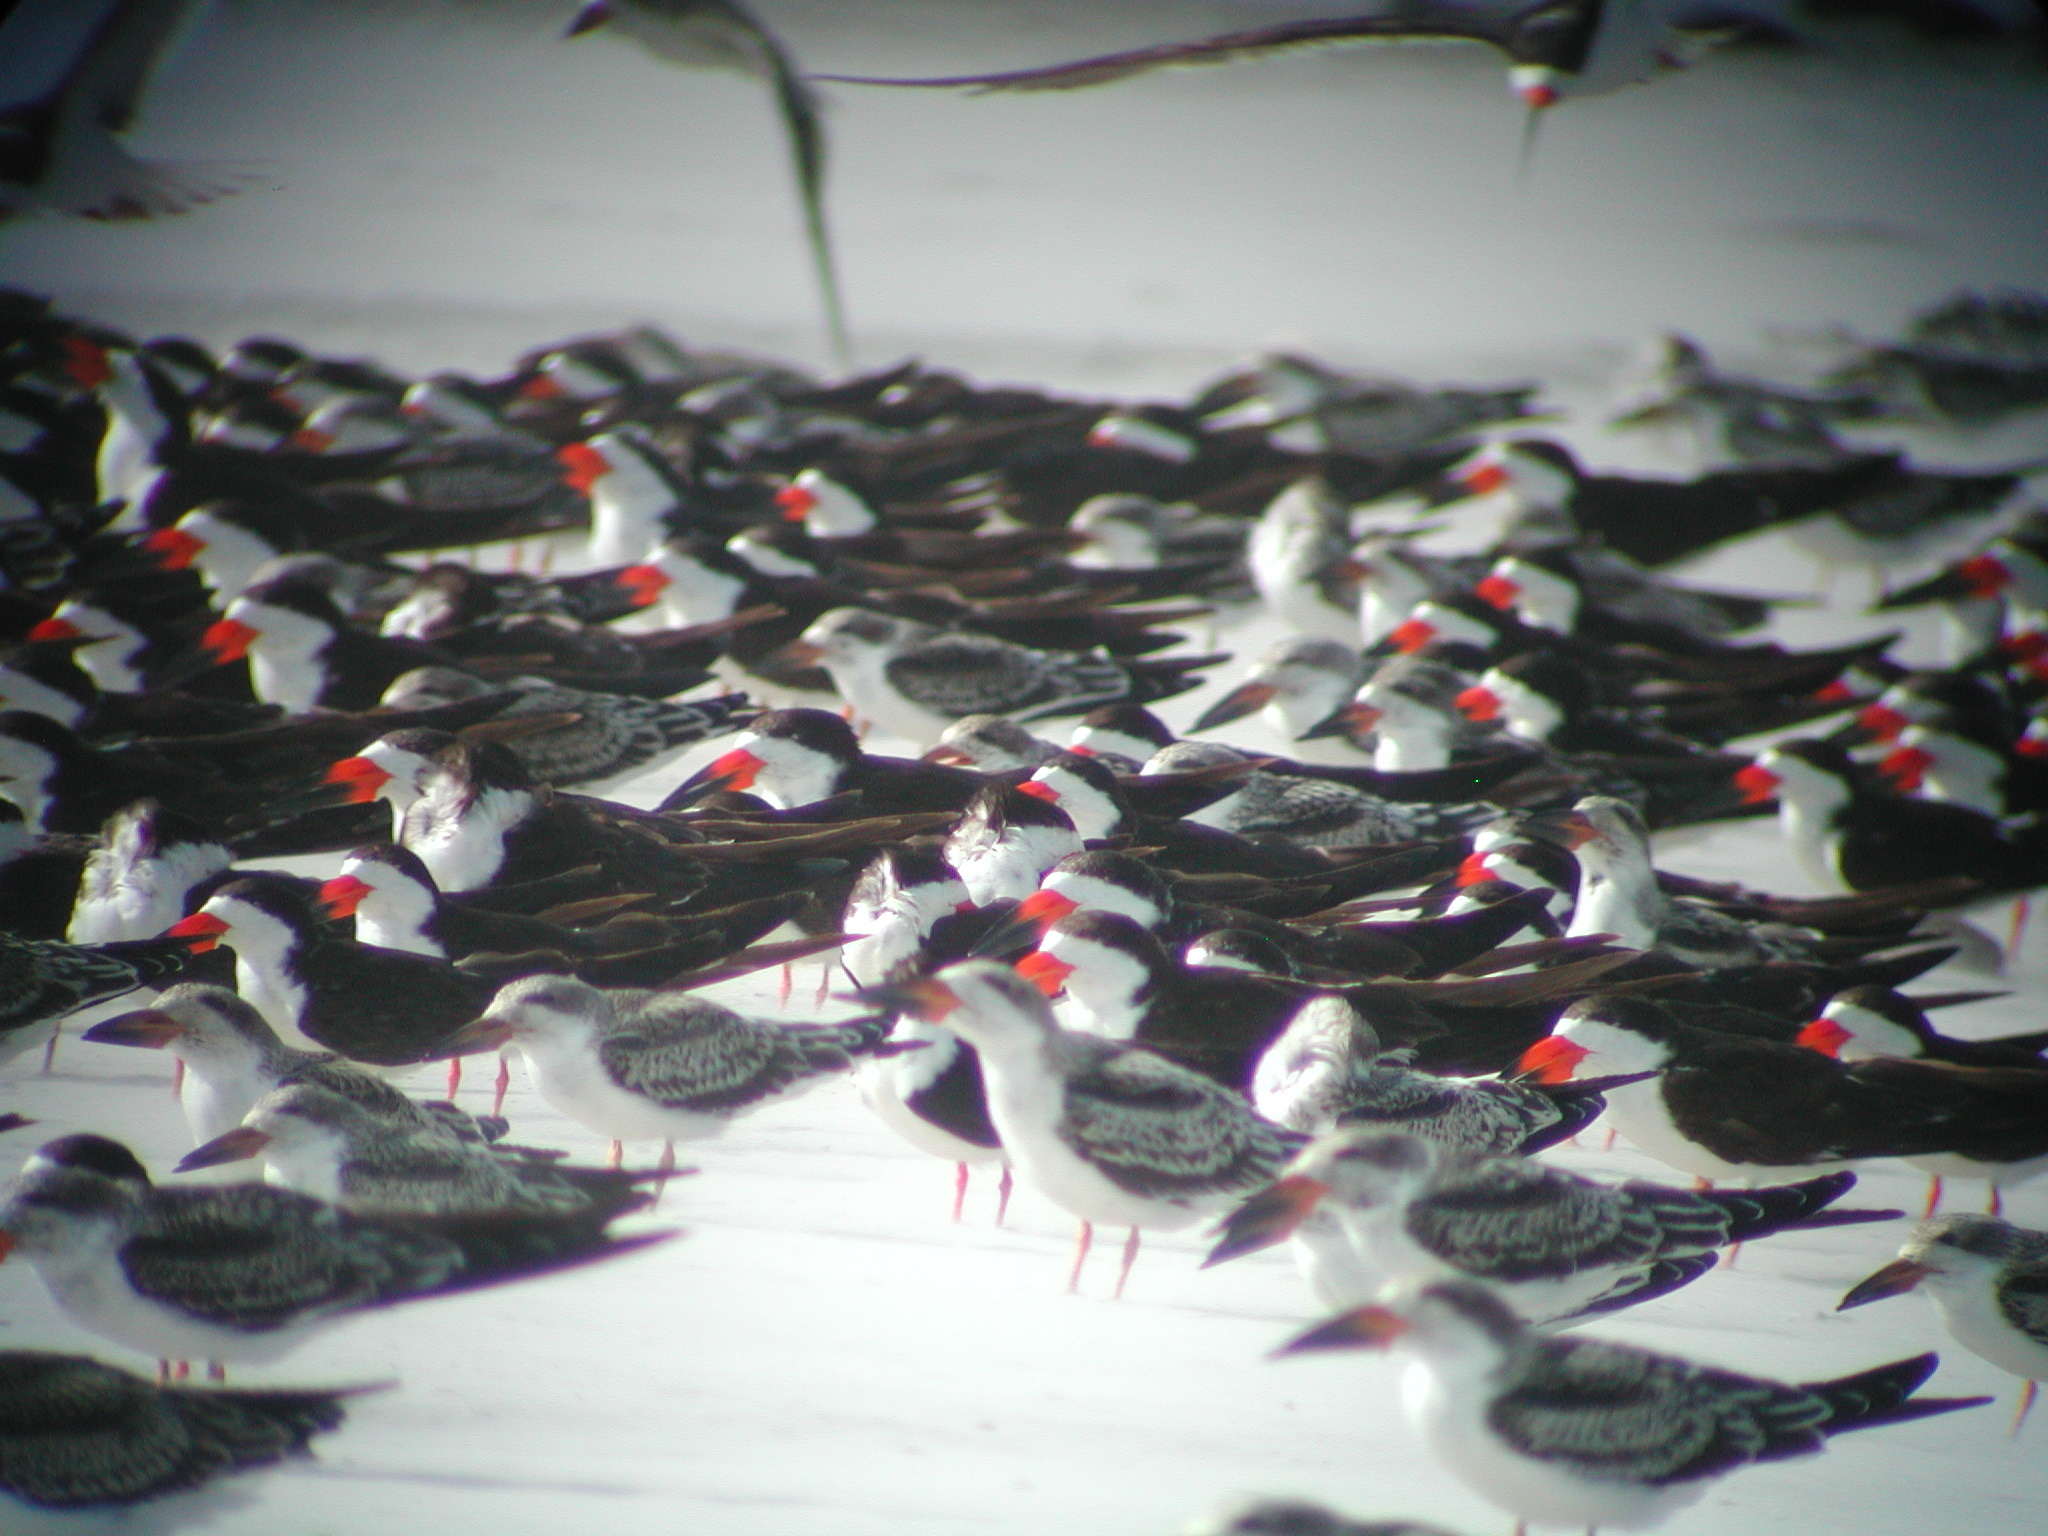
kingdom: Animalia
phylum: Chordata
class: Aves
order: Charadriiformes
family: Laridae
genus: Rynchops
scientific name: Rynchops niger
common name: Black skimmer
